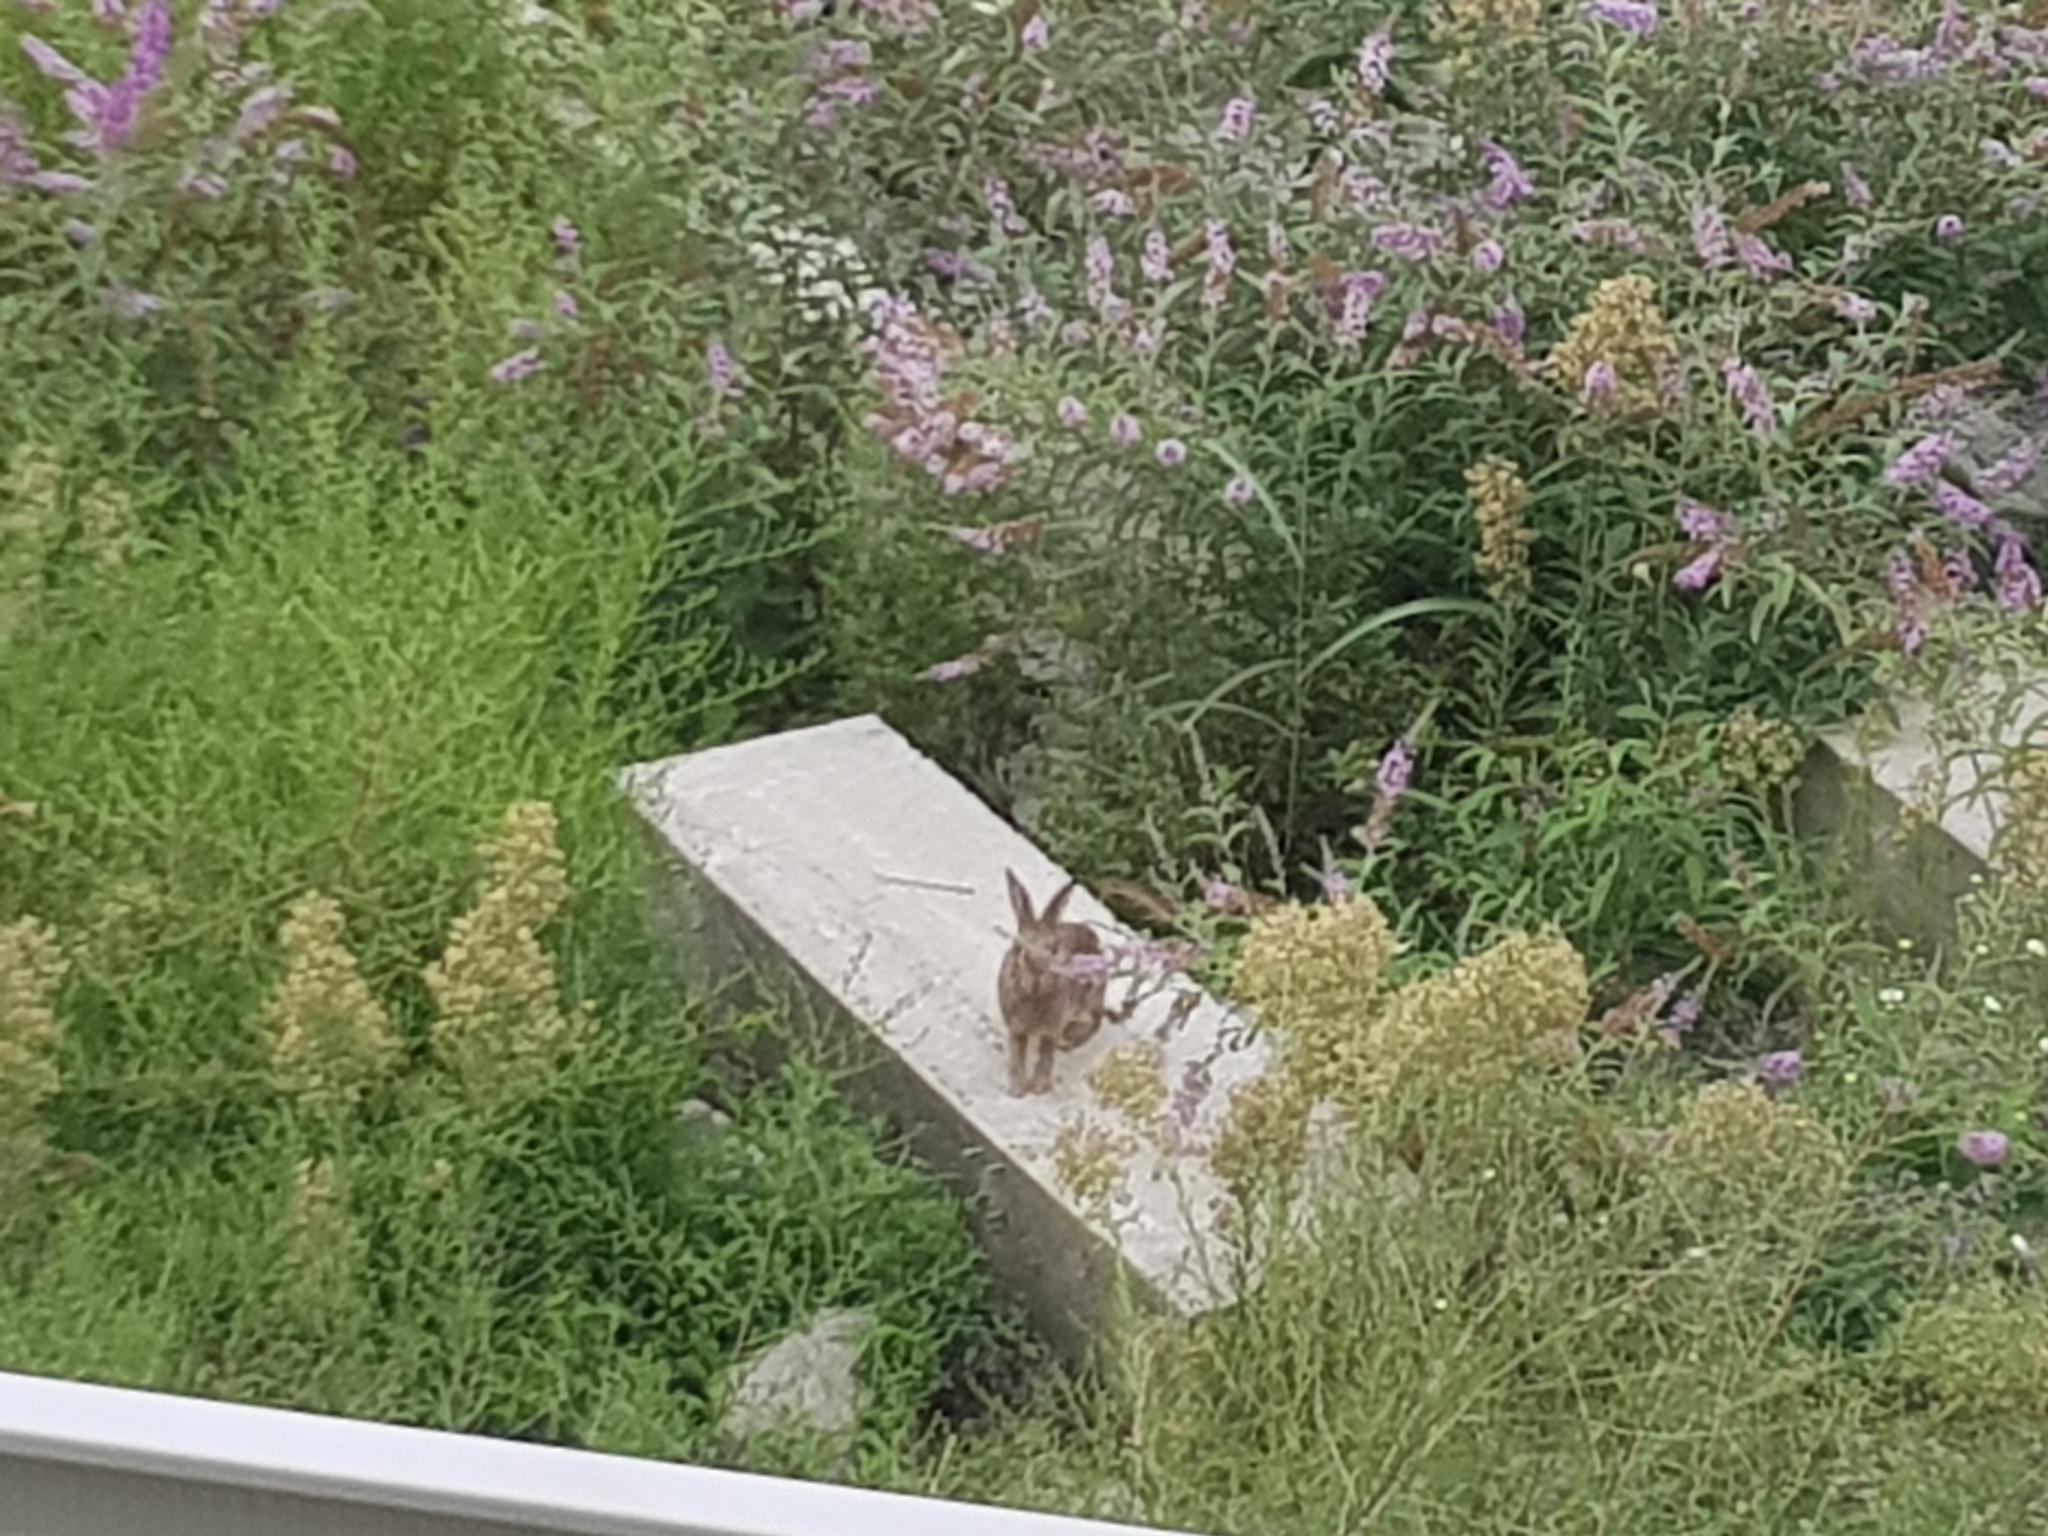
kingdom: Animalia
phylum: Chordata
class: Mammalia
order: Lagomorpha
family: Leporidae
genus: Oryctolagus
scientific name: Oryctolagus cuniculus
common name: European rabbit
